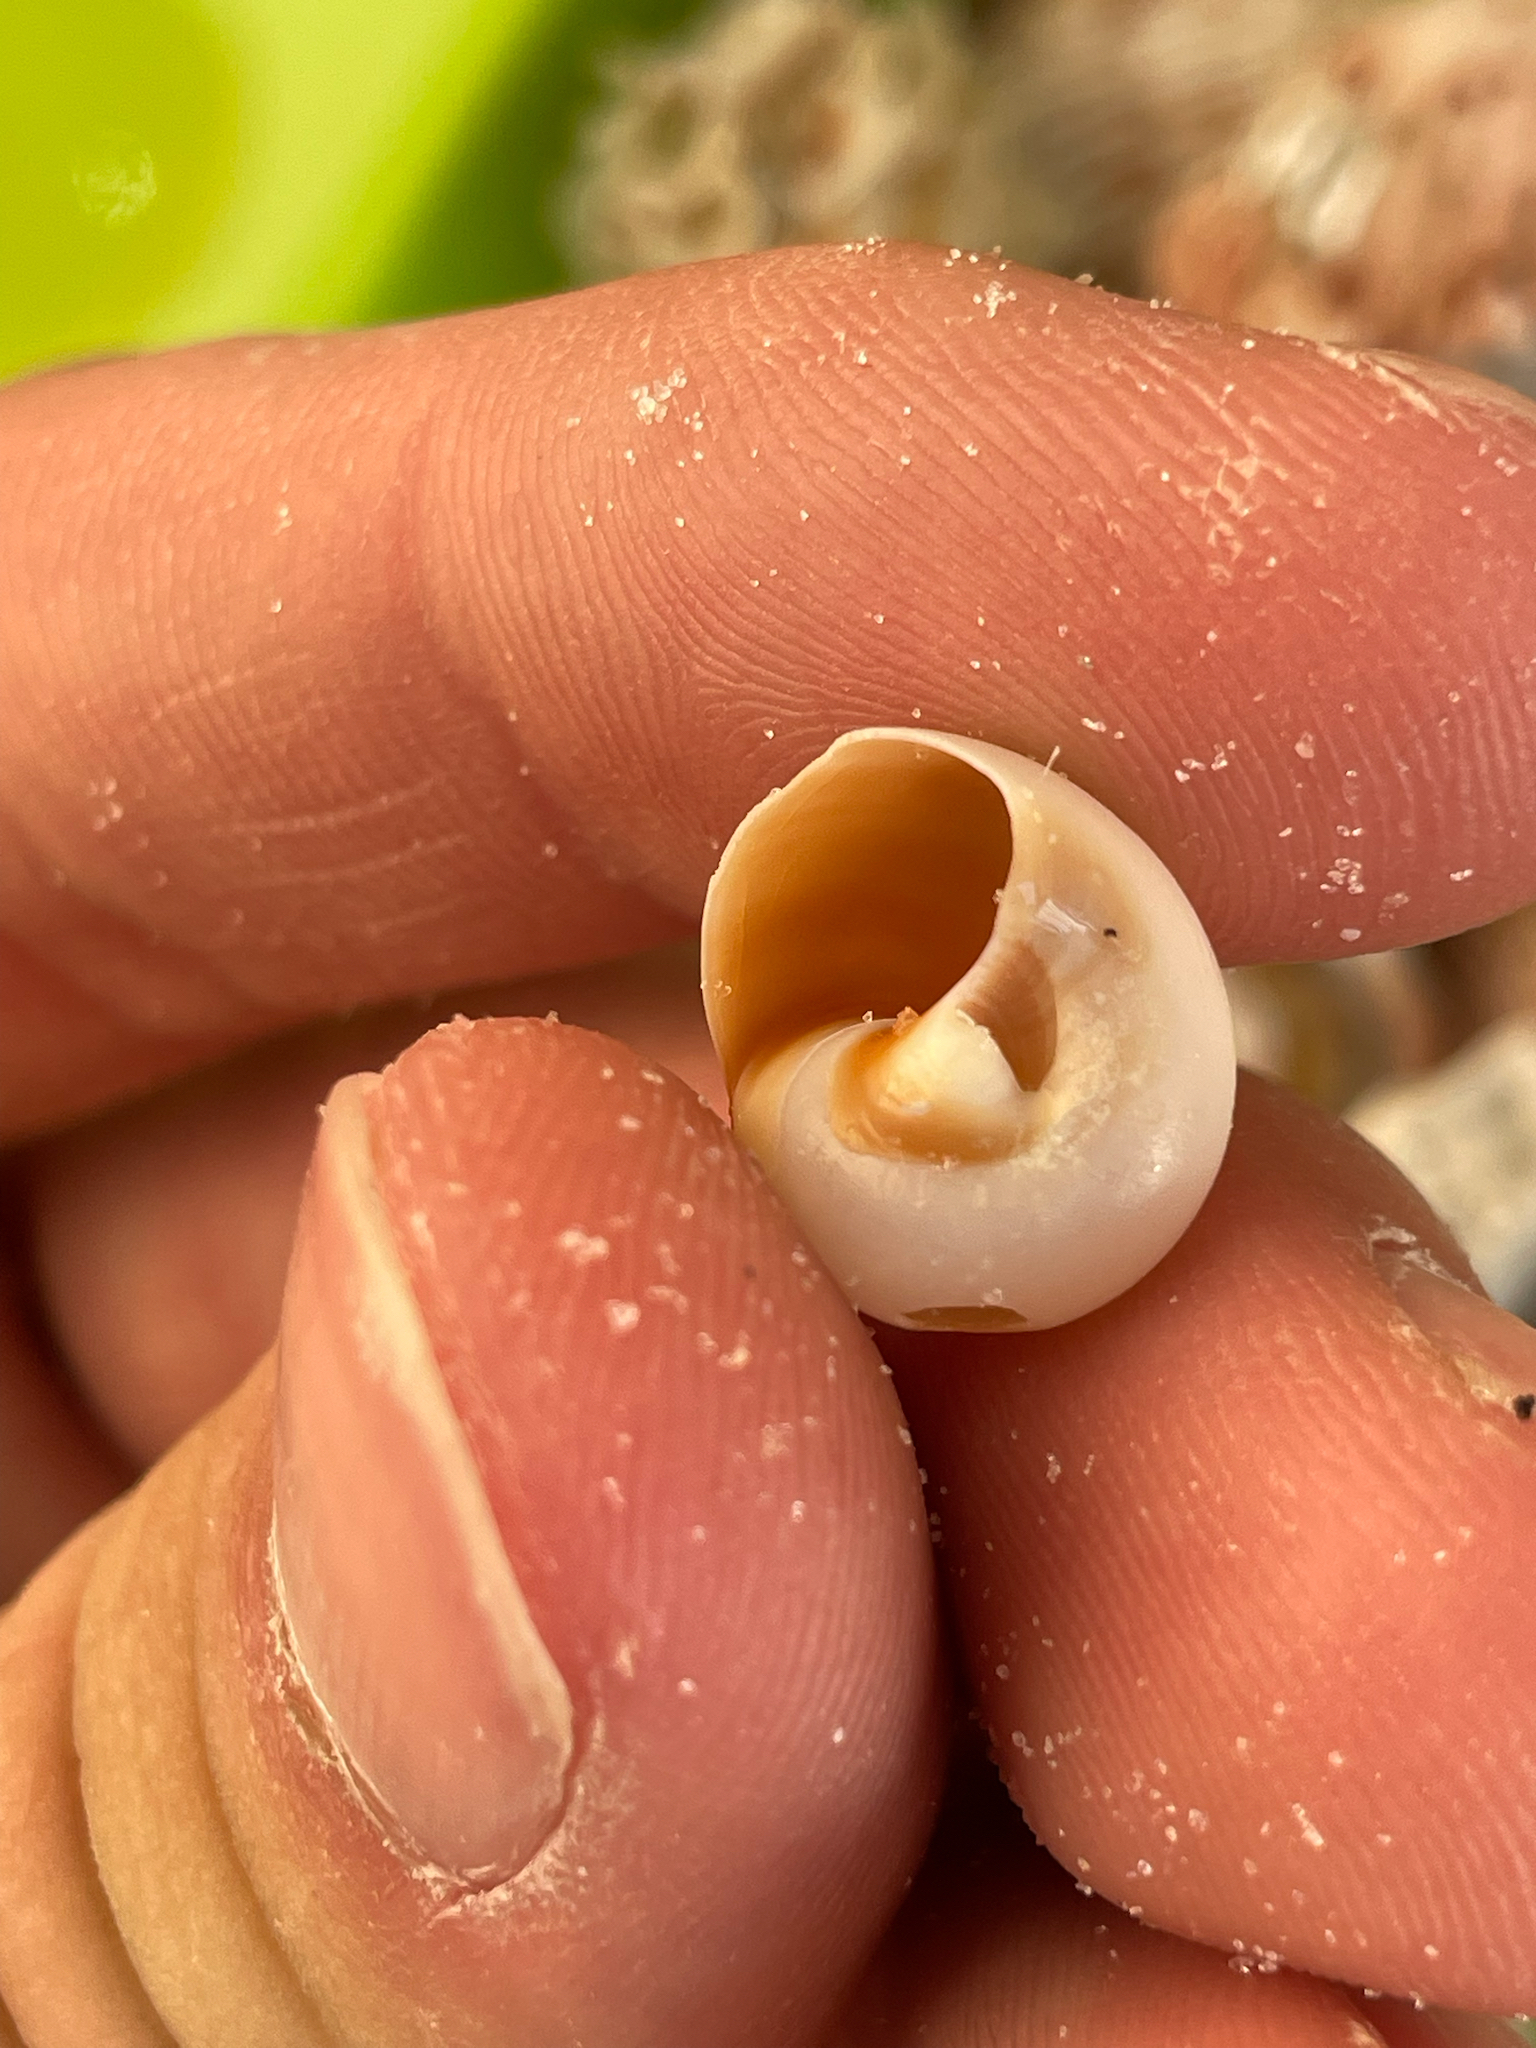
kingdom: Animalia
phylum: Mollusca
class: Gastropoda
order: Littorinimorpha
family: Naticidae
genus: Neverita
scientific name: Neverita delessertiana
